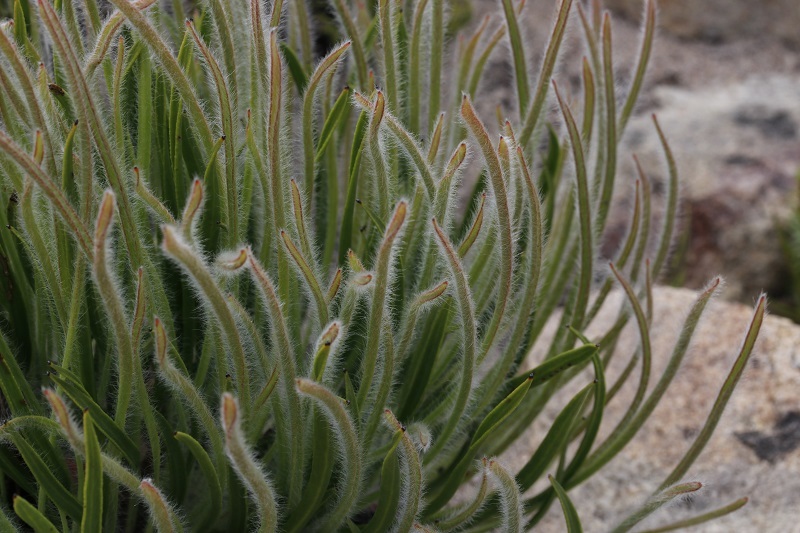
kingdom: Plantae
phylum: Tracheophyta
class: Magnoliopsida
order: Proteales
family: Proteaceae
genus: Protea
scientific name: Protea scorzonerifolia
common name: Channel-leaf sugarbush
